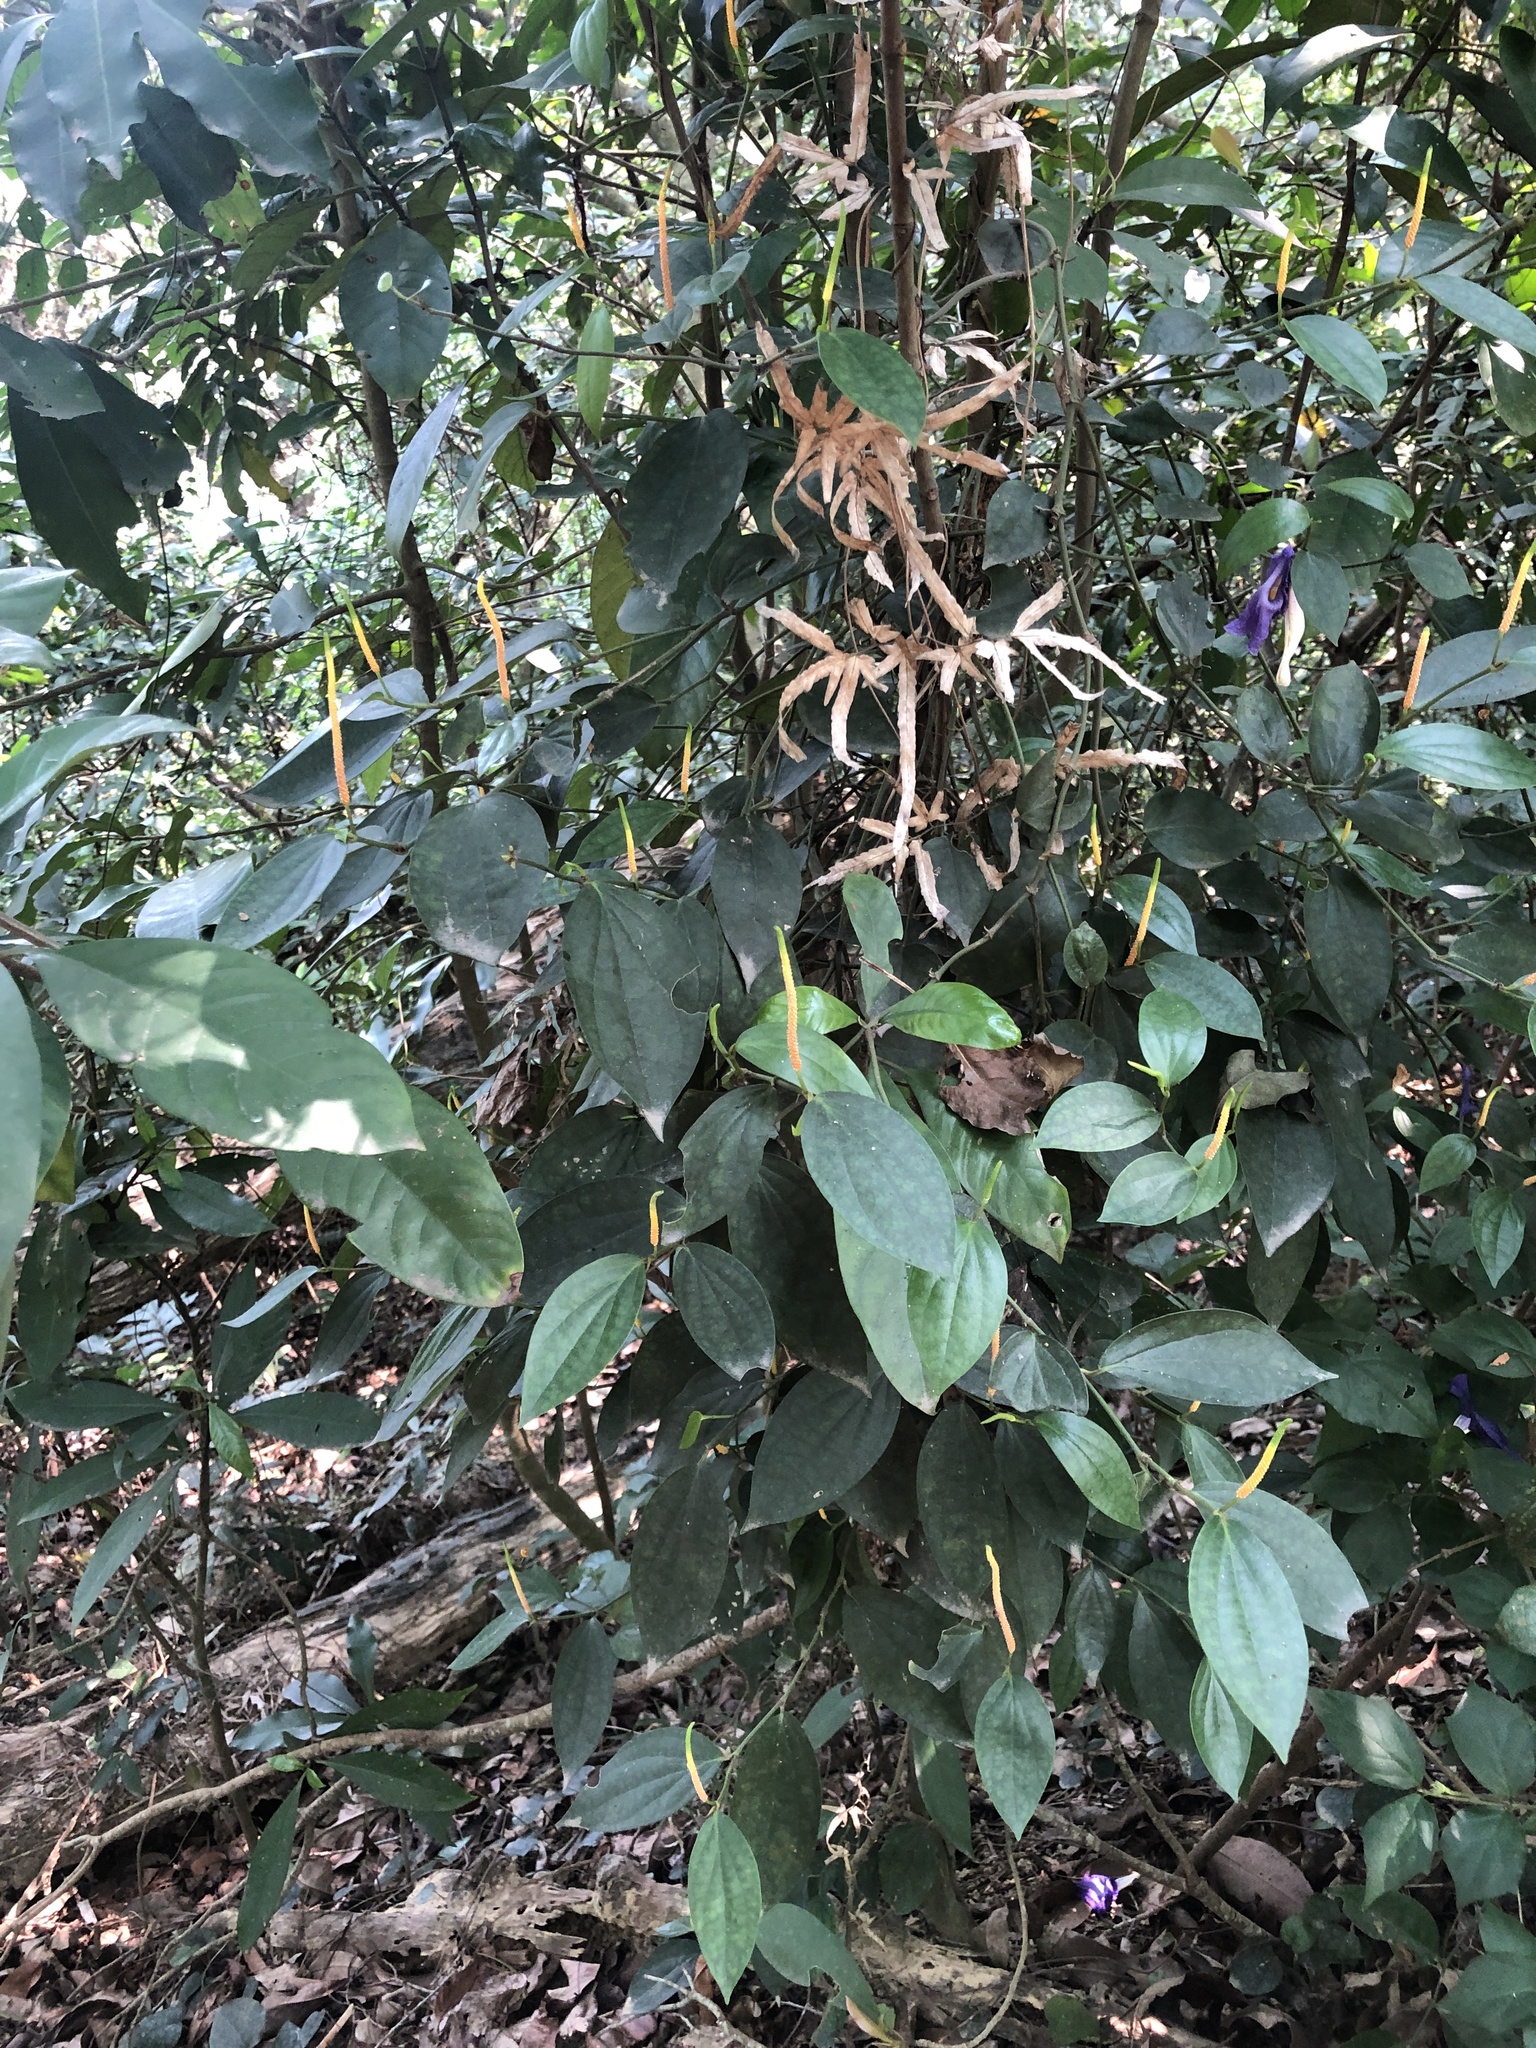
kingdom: Plantae
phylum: Tracheophyta
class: Magnoliopsida
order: Piperales
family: Piperaceae
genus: Piper
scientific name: Piper kadsura
